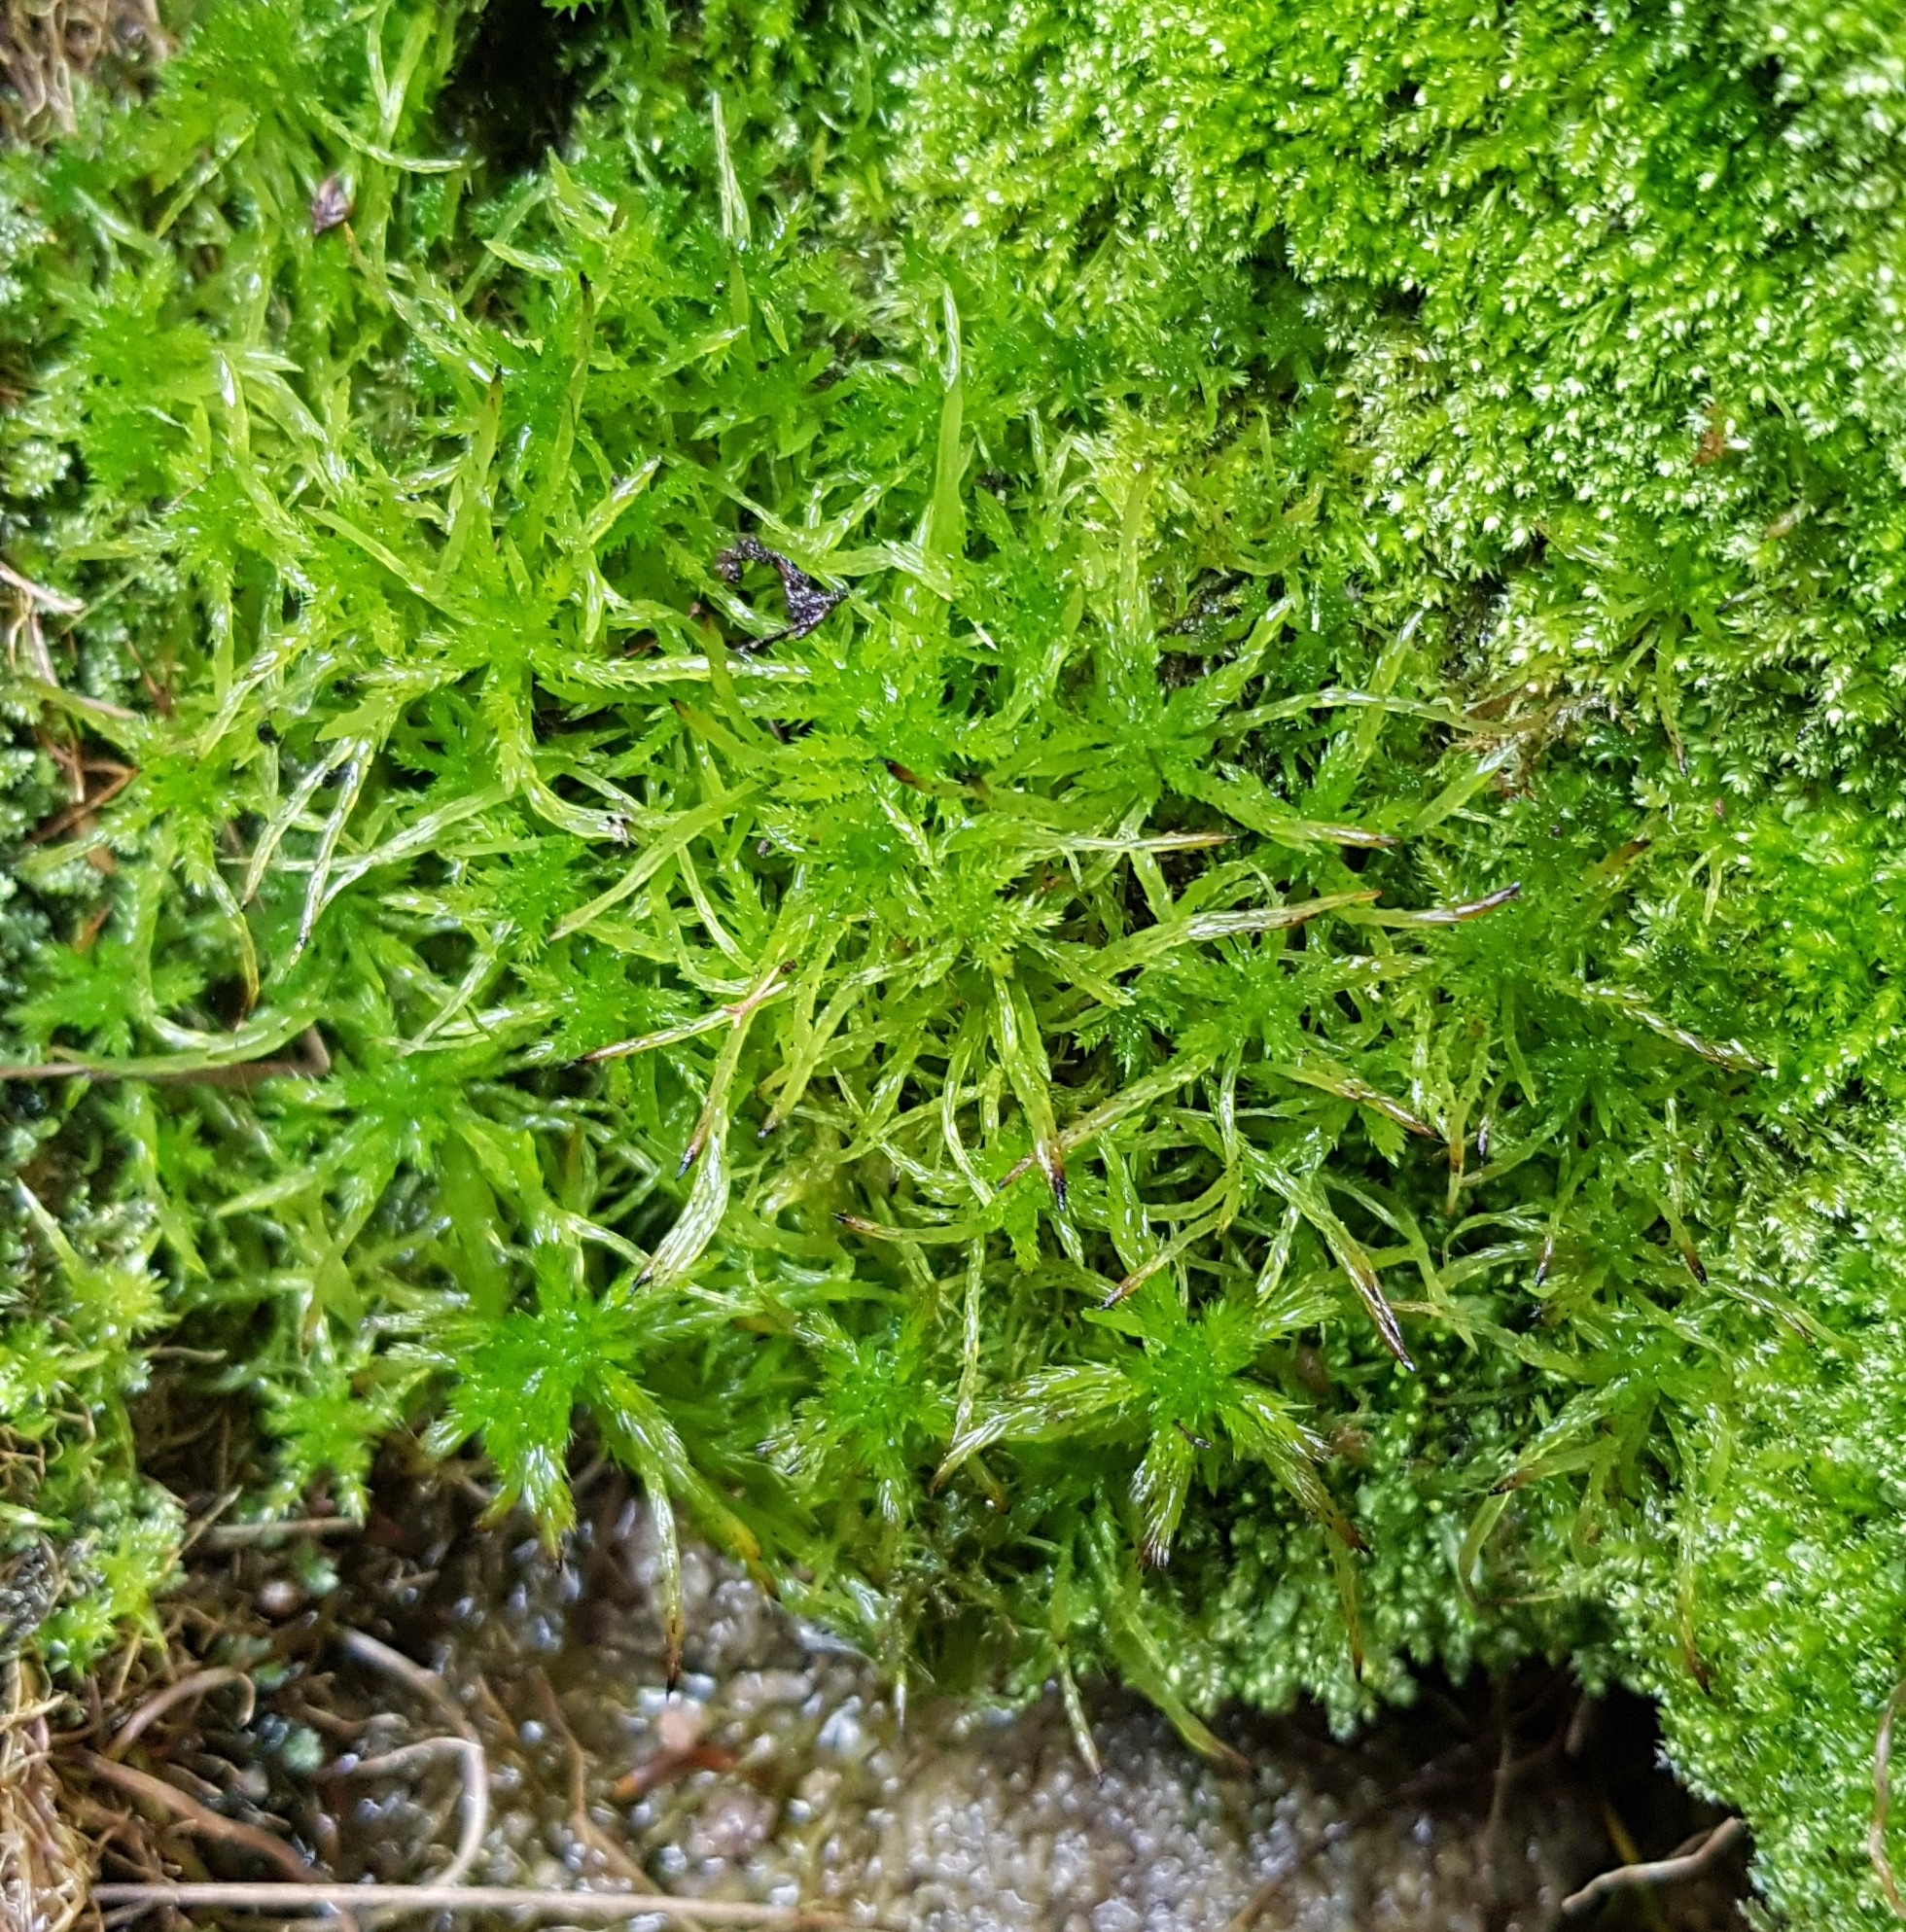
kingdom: Plantae
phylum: Bryophyta
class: Sphagnopsida
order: Sphagnales
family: Sphagnaceae
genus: Sphagnum
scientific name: Sphagnum fimbriatum
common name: Fringed peat moss
